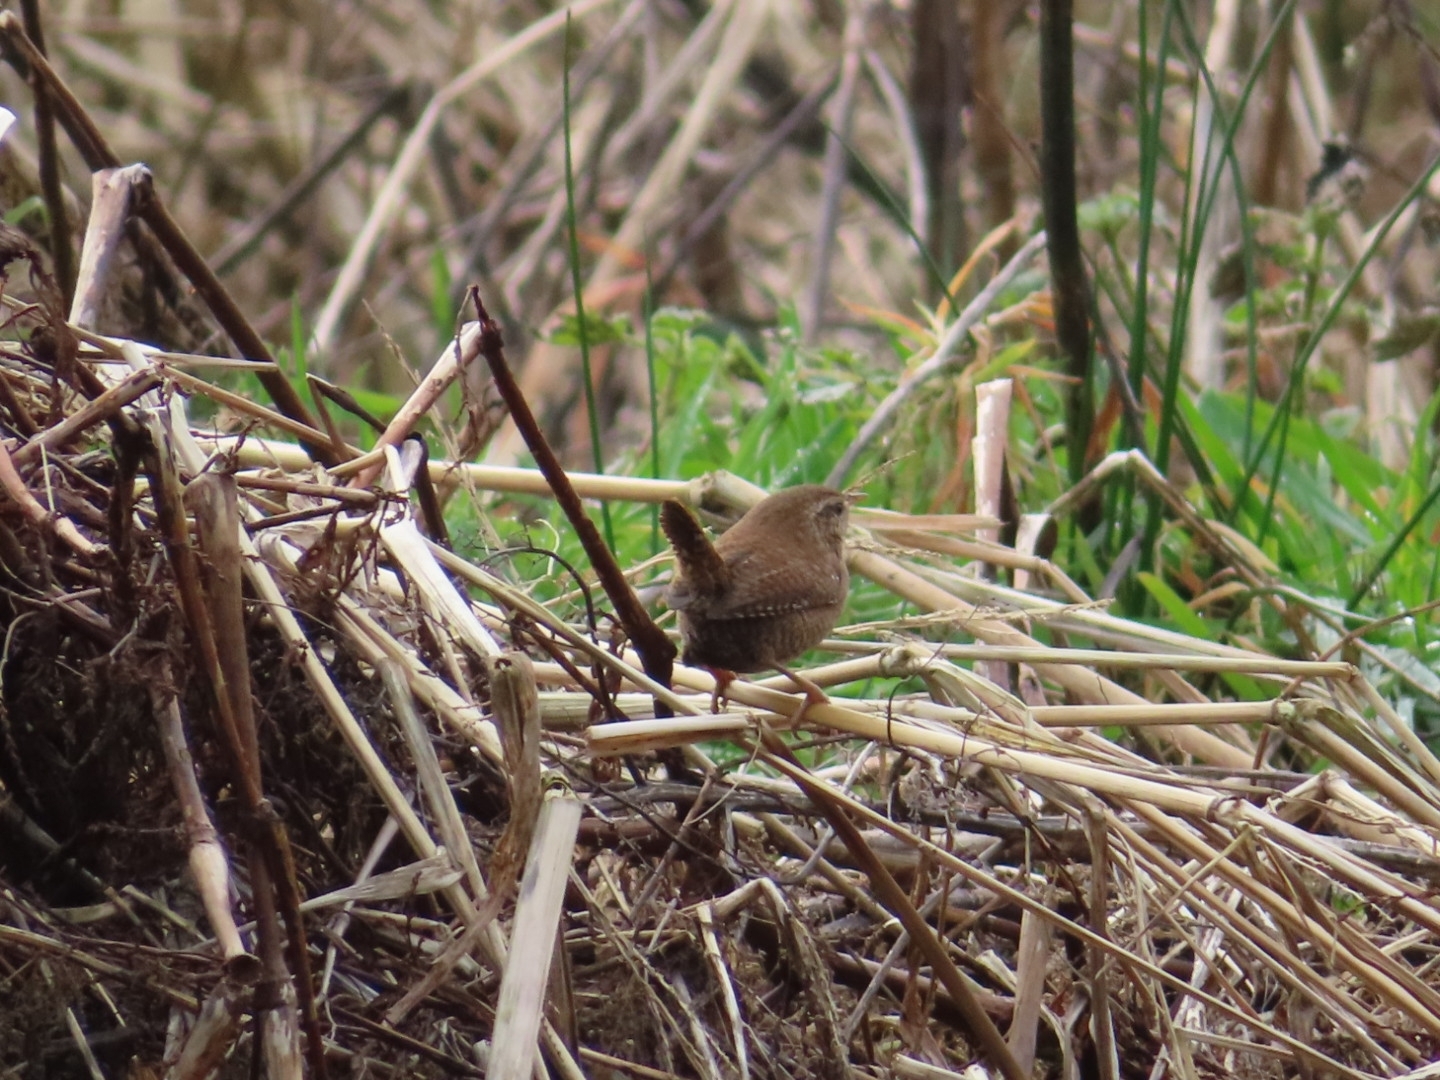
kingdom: Animalia
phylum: Chordata
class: Aves
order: Passeriformes
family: Troglodytidae
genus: Troglodytes
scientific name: Troglodytes troglodytes
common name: Eurasian wren
